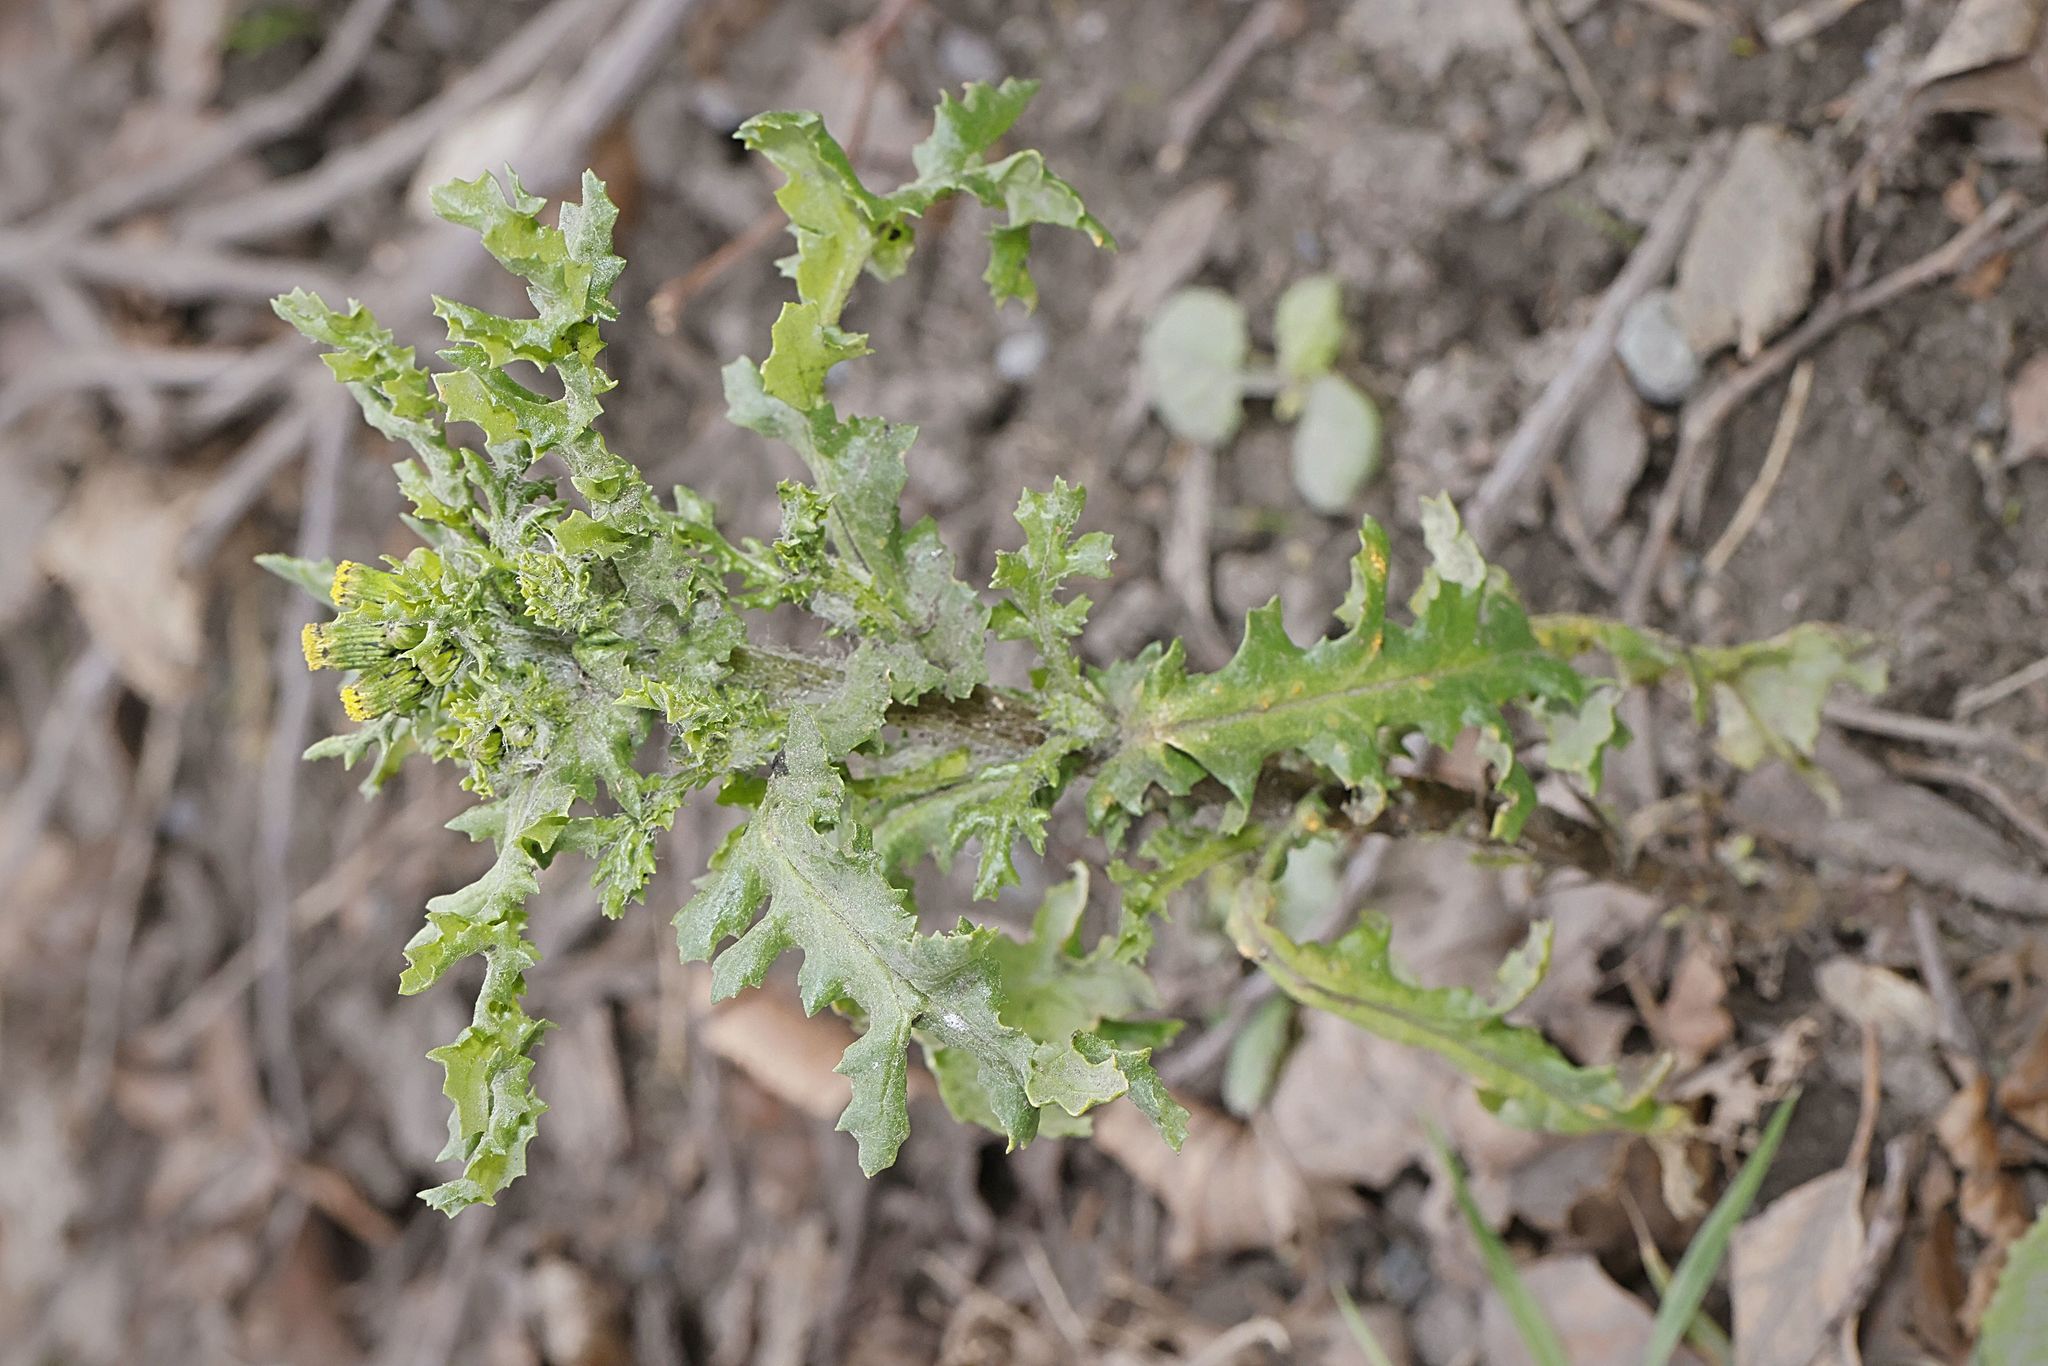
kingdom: Plantae
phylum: Tracheophyta
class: Magnoliopsida
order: Asterales
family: Asteraceae
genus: Senecio
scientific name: Senecio vulgaris
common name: Old-man-in-the-spring
